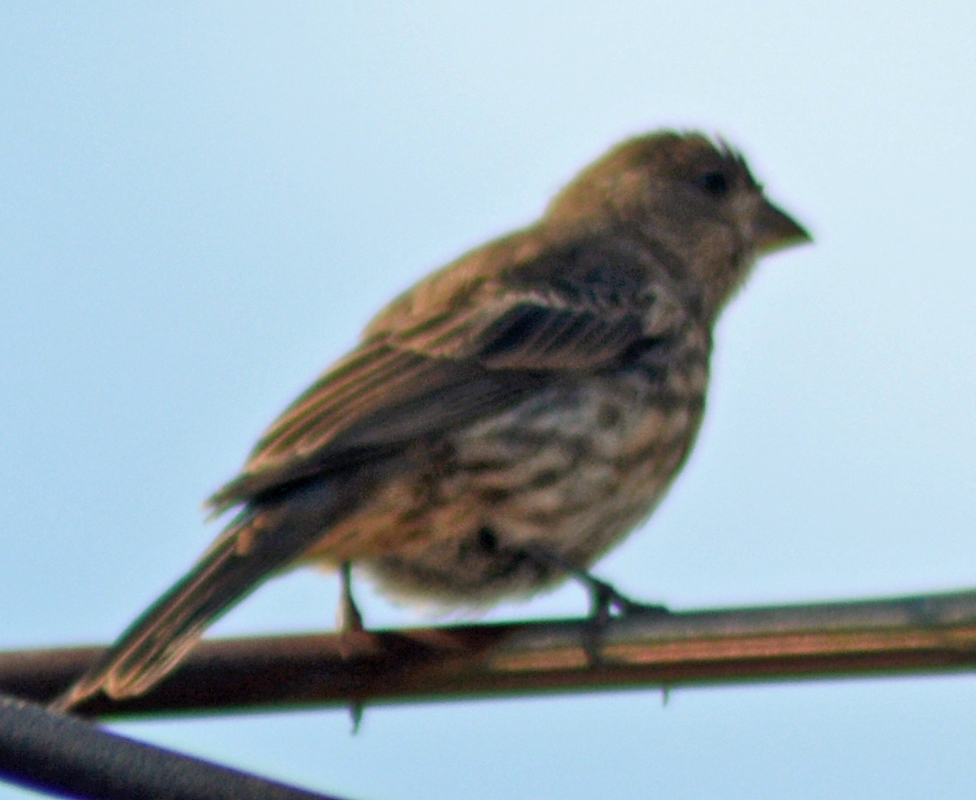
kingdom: Animalia
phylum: Chordata
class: Aves
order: Passeriformes
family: Fringillidae
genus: Haemorhous
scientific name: Haemorhous mexicanus
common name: House finch
